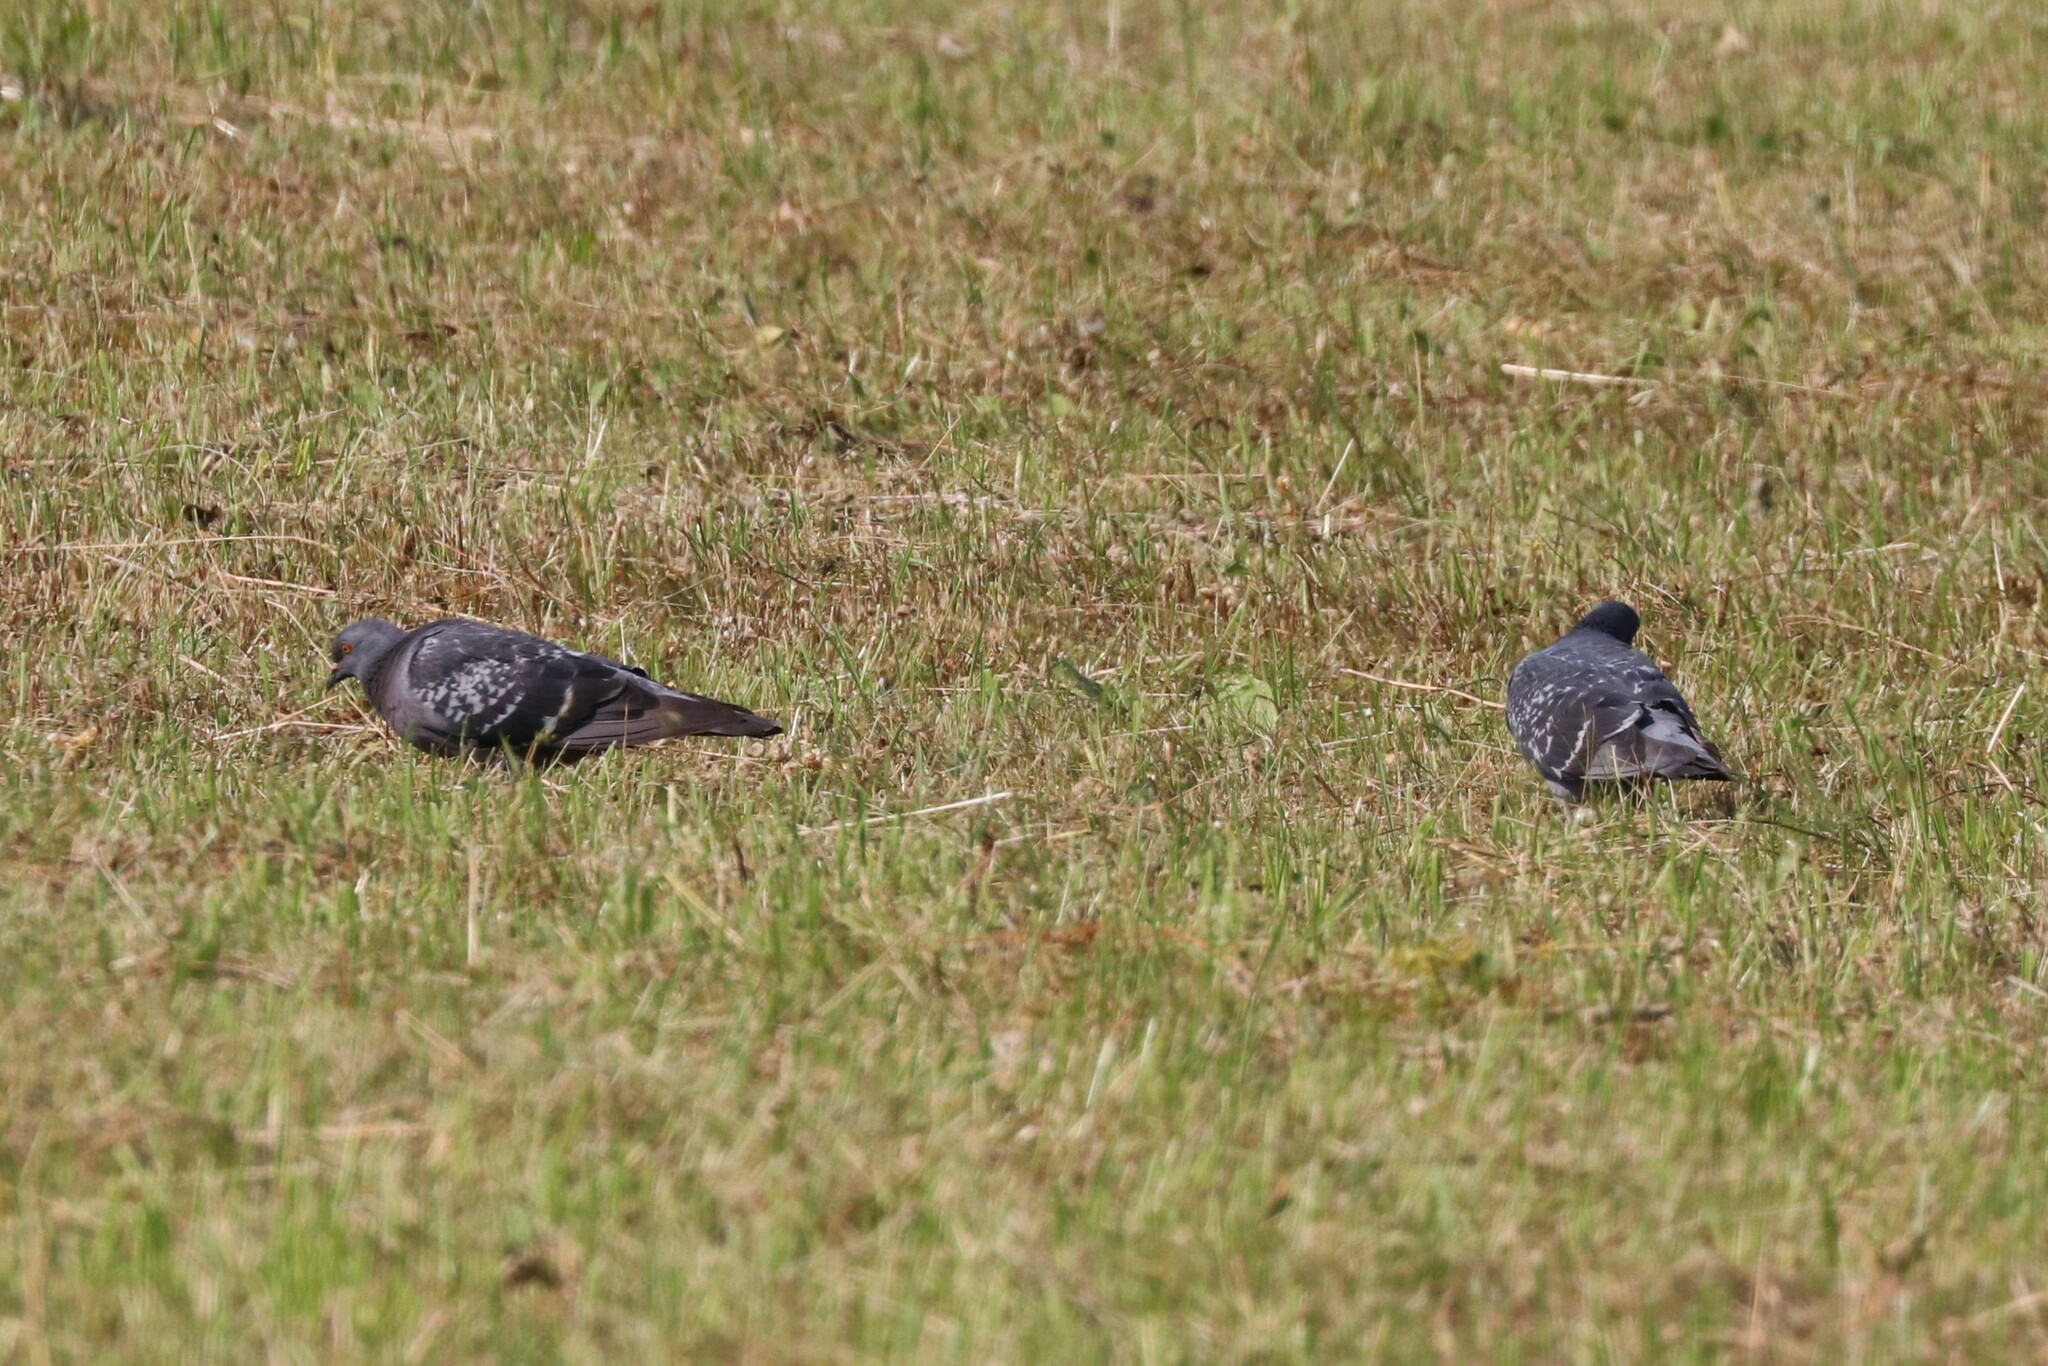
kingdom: Animalia
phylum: Chordata
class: Aves
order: Columbiformes
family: Columbidae
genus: Columba
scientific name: Columba livia
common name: Rock pigeon
